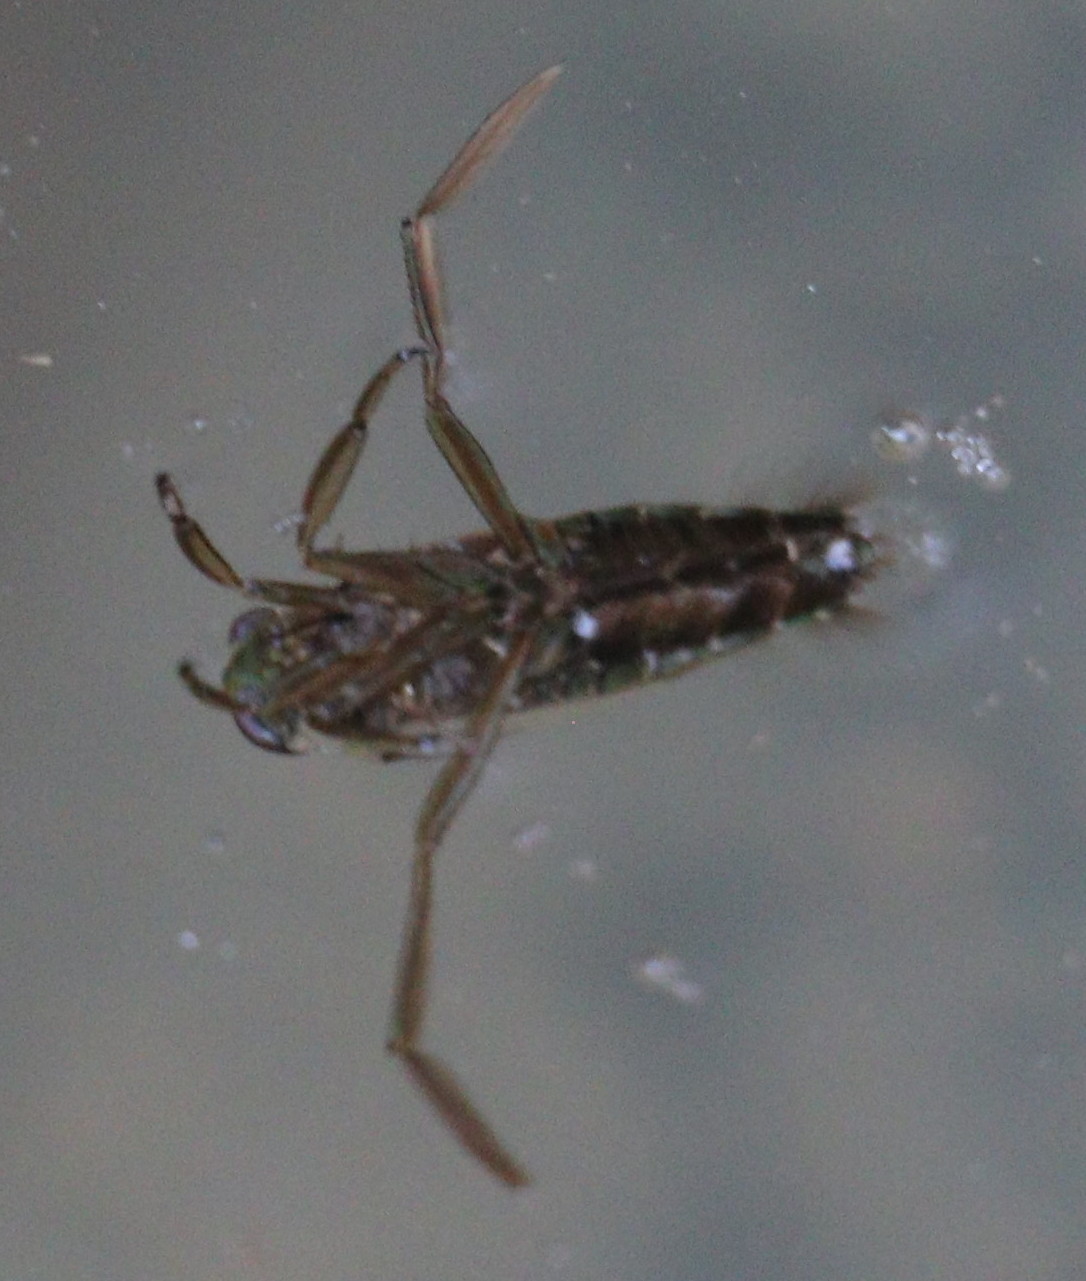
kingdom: Animalia
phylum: Arthropoda
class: Insecta
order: Hemiptera
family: Notonectidae
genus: Notonecta
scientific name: Notonecta
